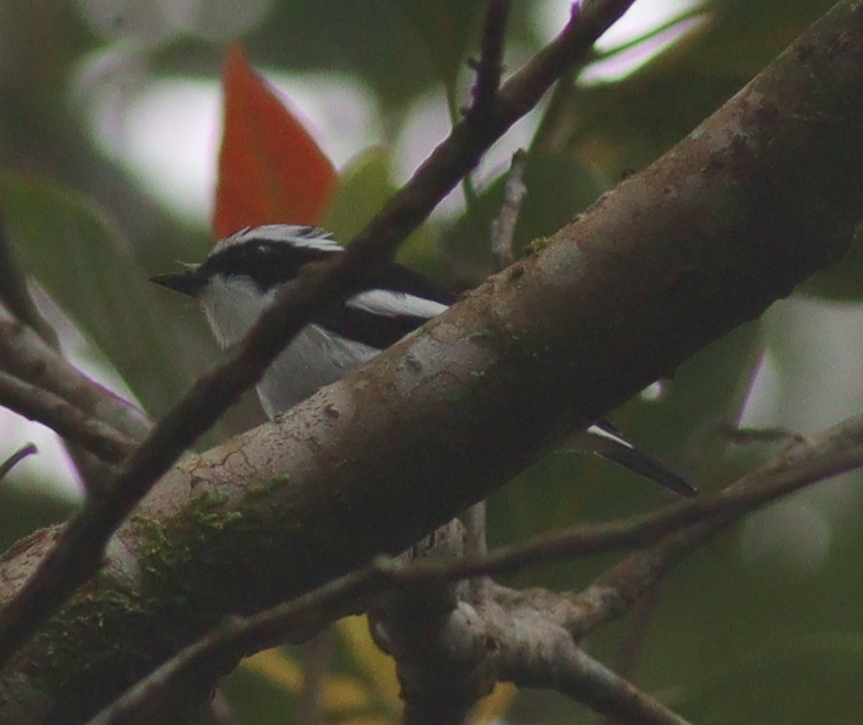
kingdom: Animalia
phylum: Chordata
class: Aves
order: Passeriformes
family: Muscicapidae
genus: Ficedula
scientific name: Ficedula westermanni
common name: Little pied flycatcher
